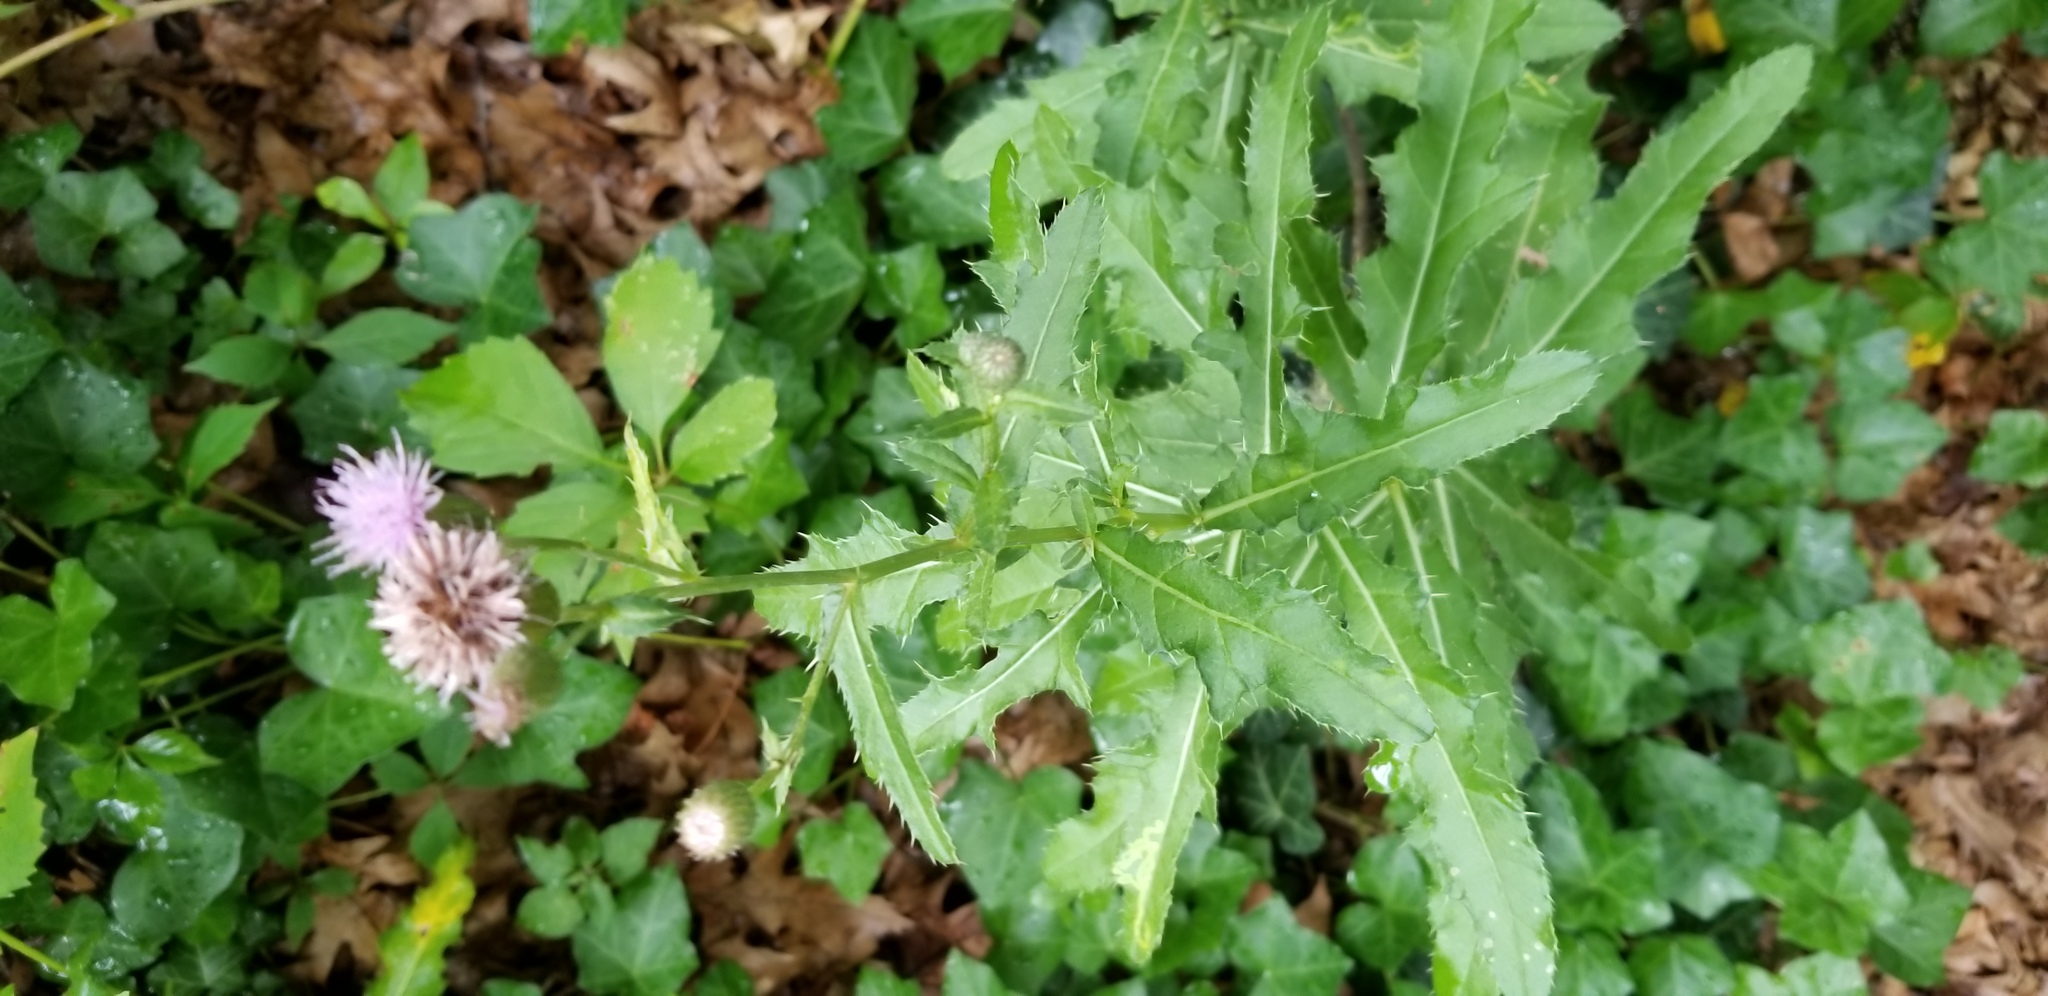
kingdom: Plantae
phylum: Tracheophyta
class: Magnoliopsida
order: Asterales
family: Asteraceae
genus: Cirsium
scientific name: Cirsium arvense
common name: Creeping thistle
